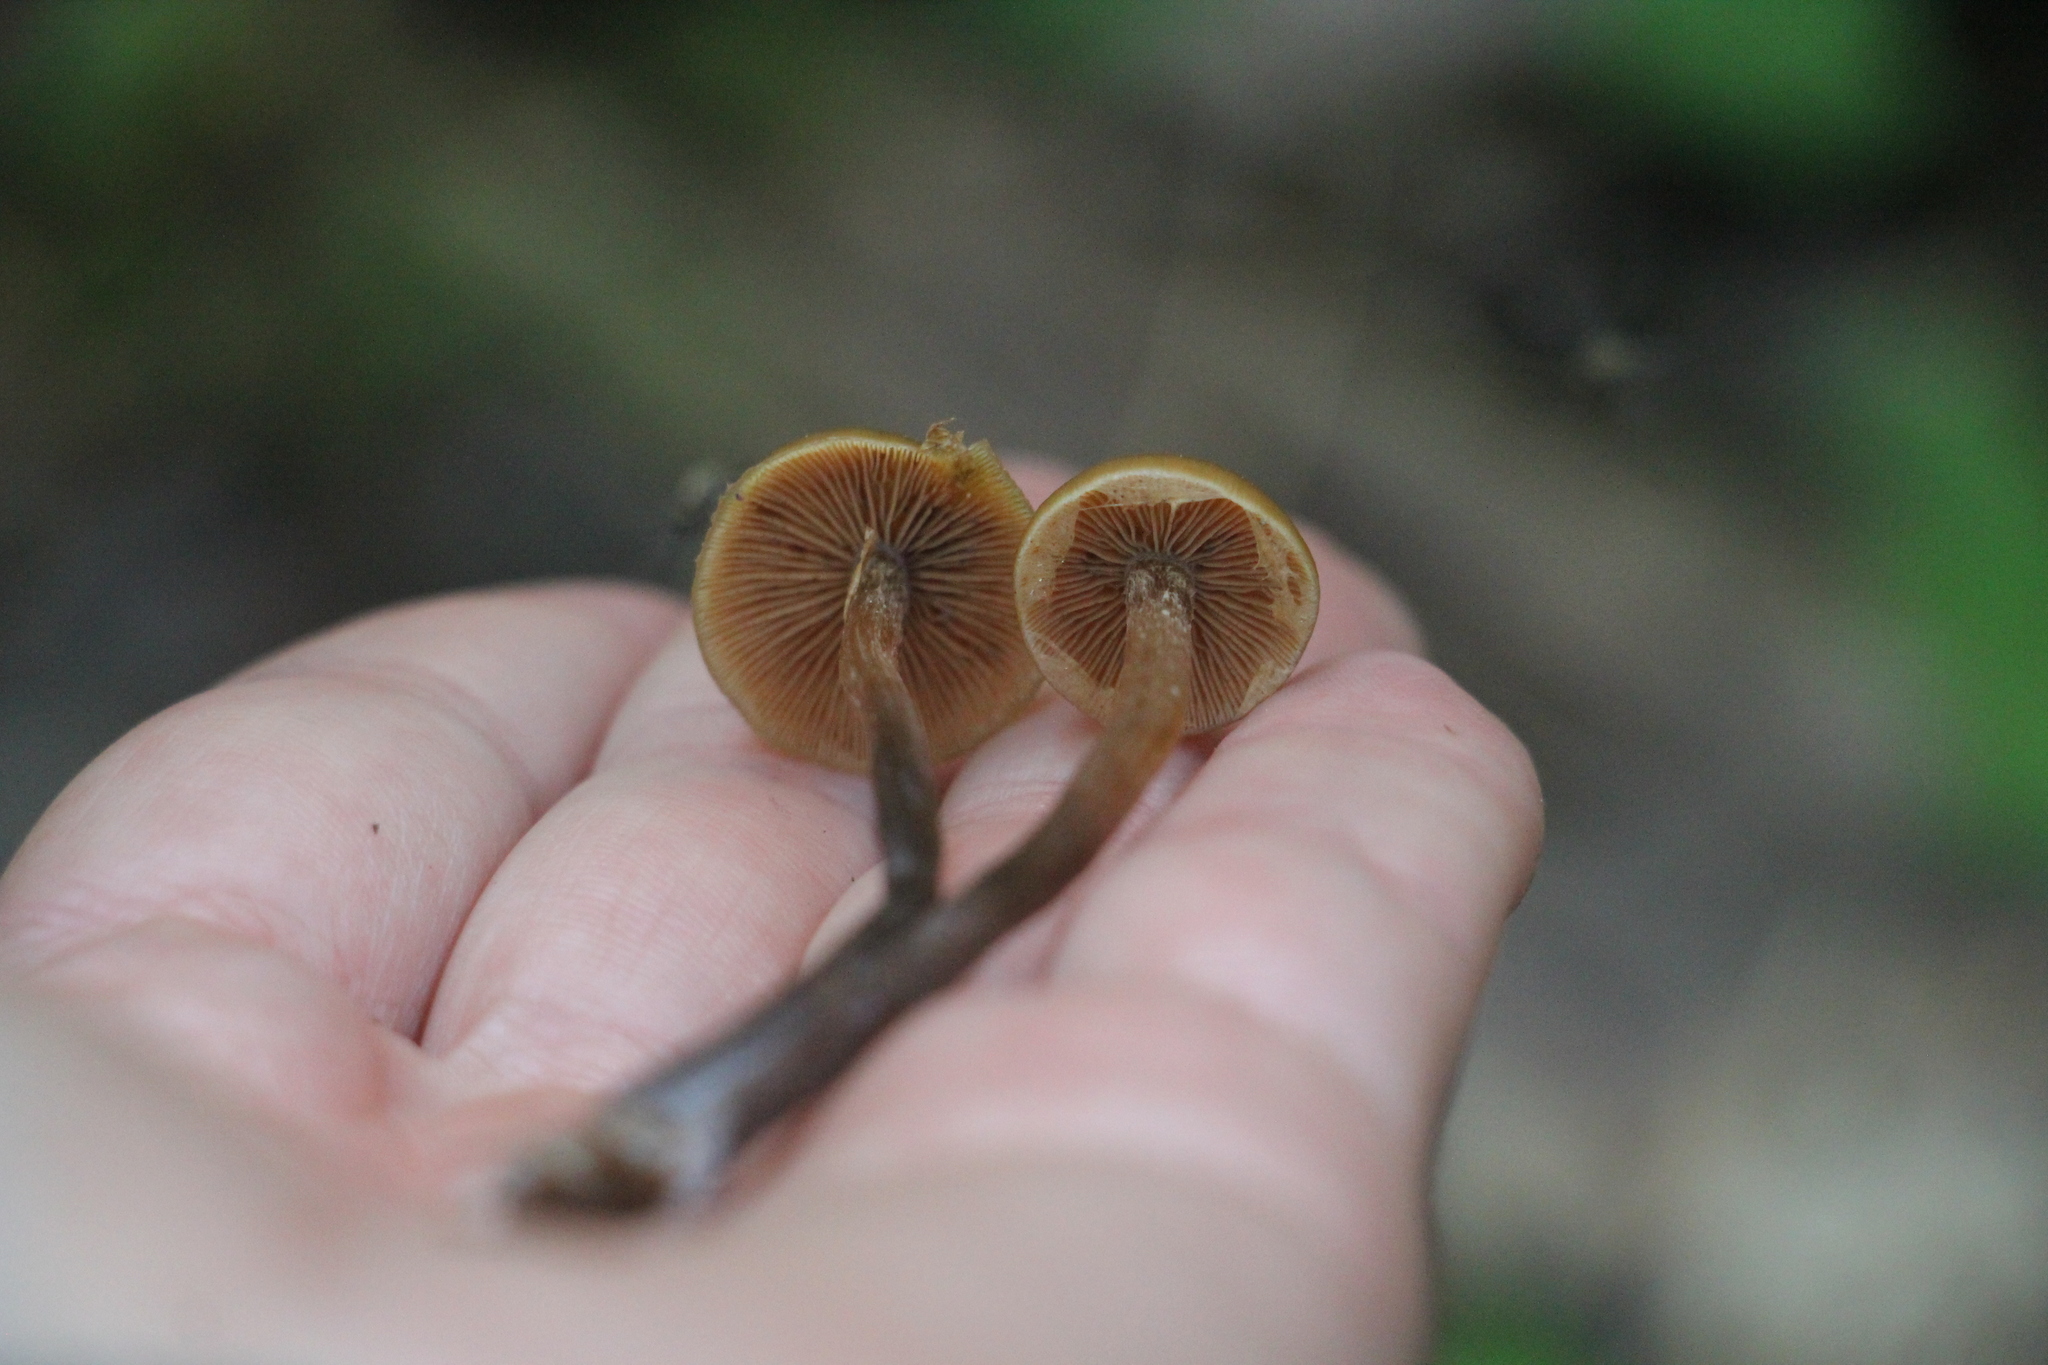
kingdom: Fungi
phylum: Basidiomycota
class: Agaricomycetes
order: Agaricales
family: Strophariaceae
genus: Pholiota
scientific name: Pholiota lignicola
